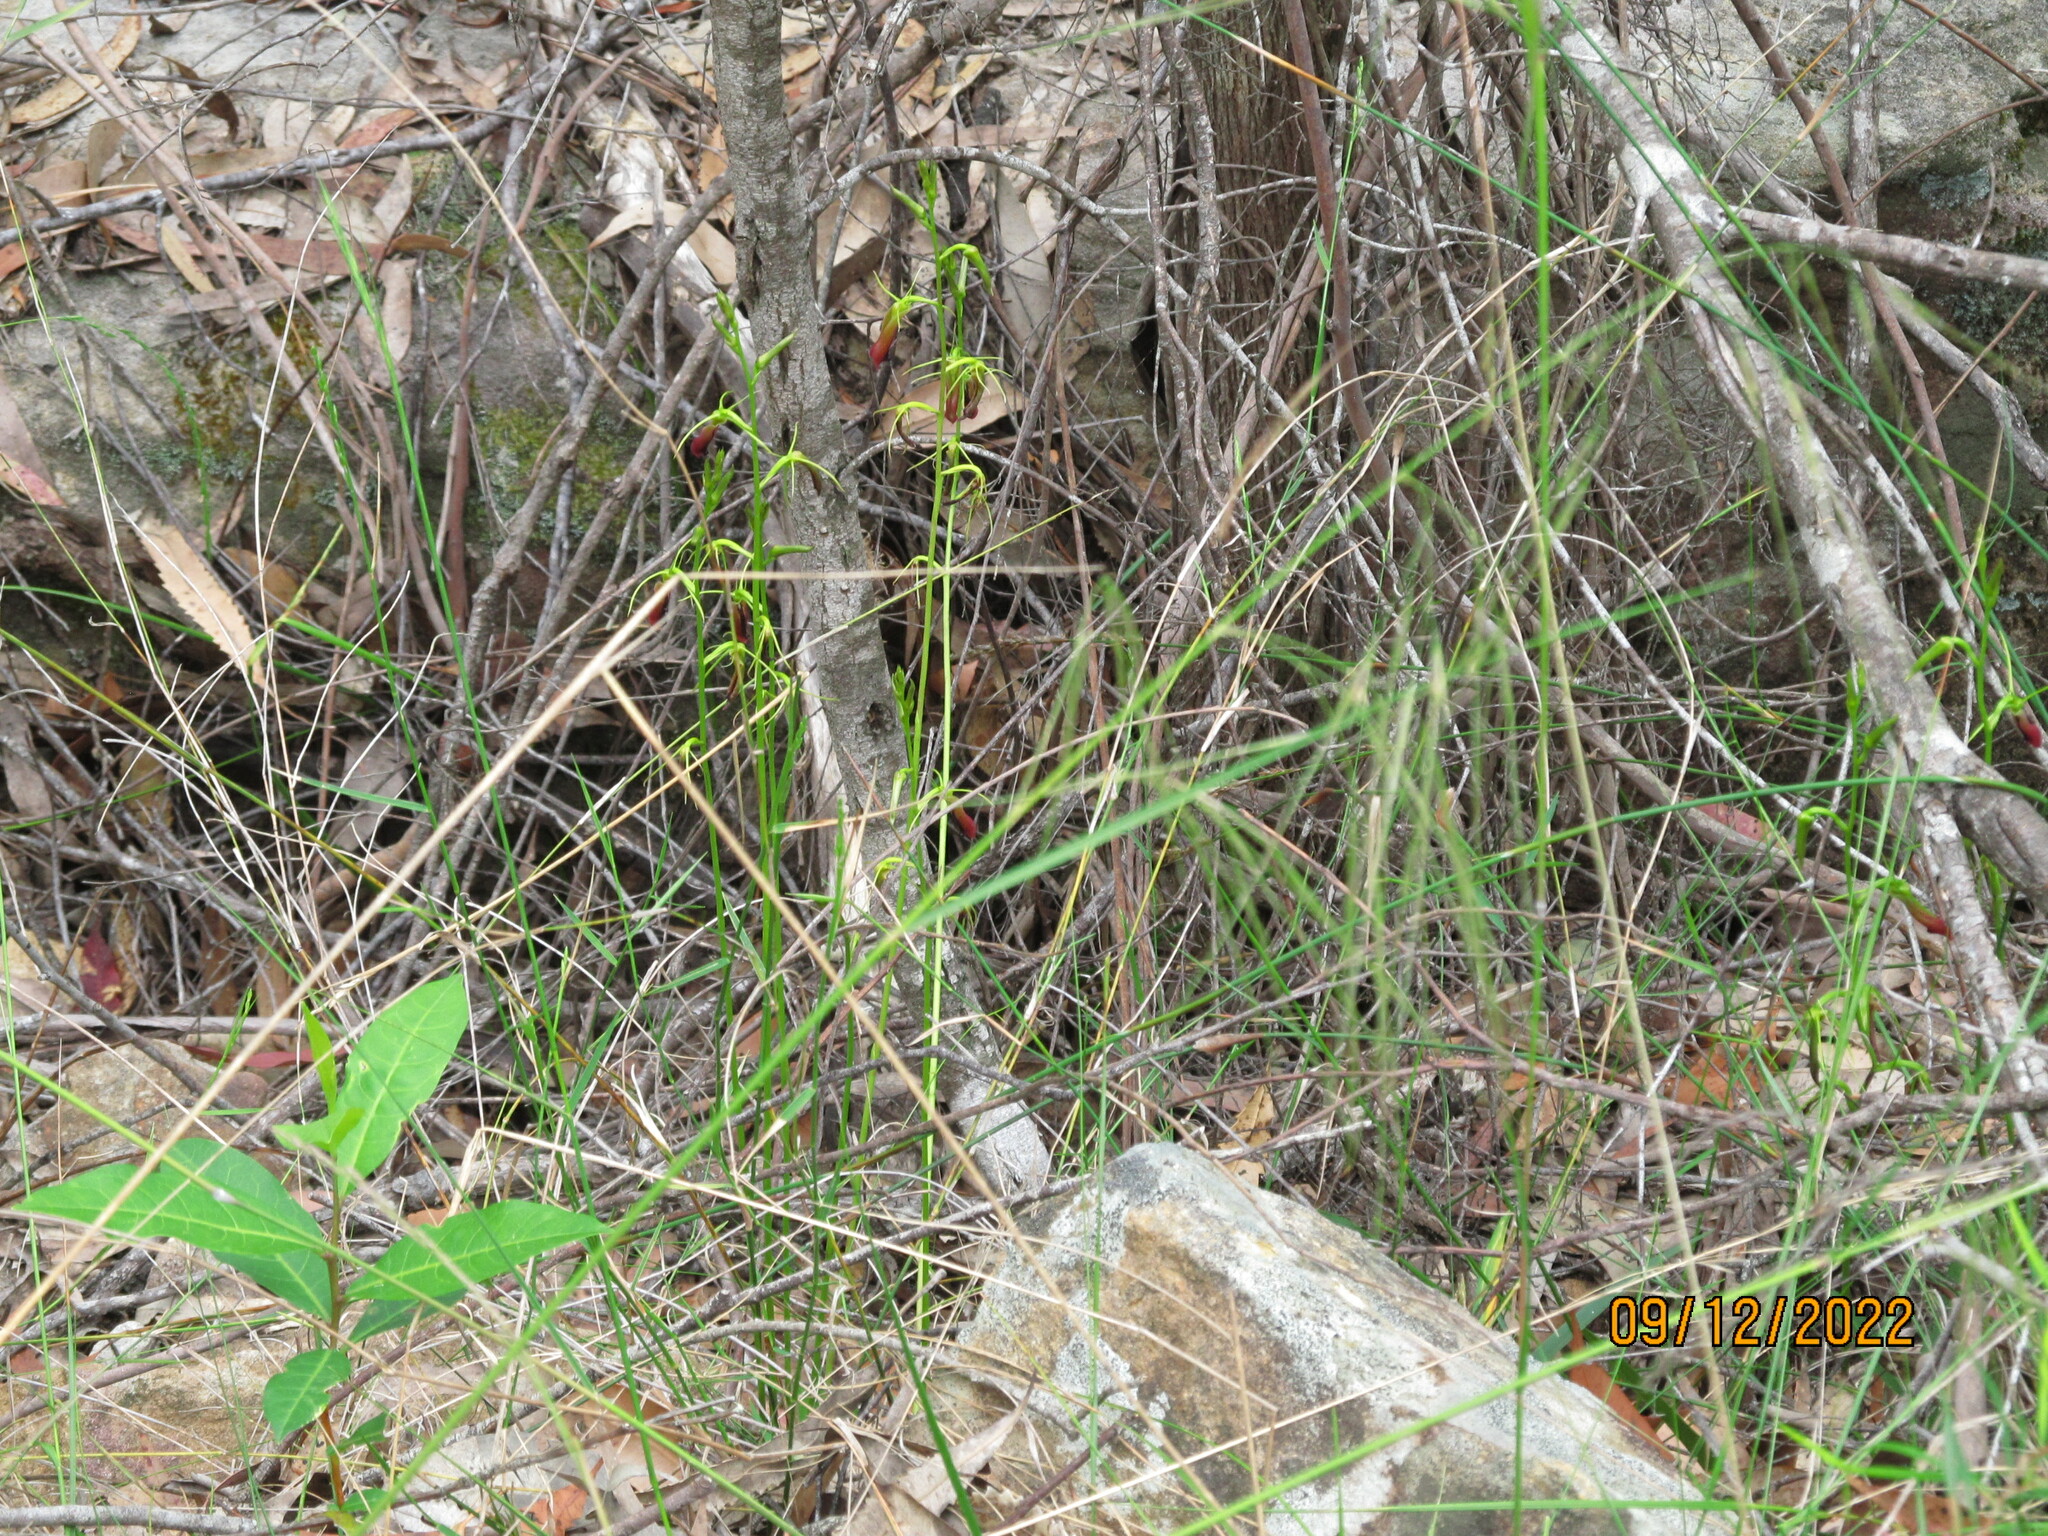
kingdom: Plantae
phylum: Tracheophyta
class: Liliopsida
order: Asparagales
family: Orchidaceae
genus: Cryptostylis
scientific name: Cryptostylis subulata
